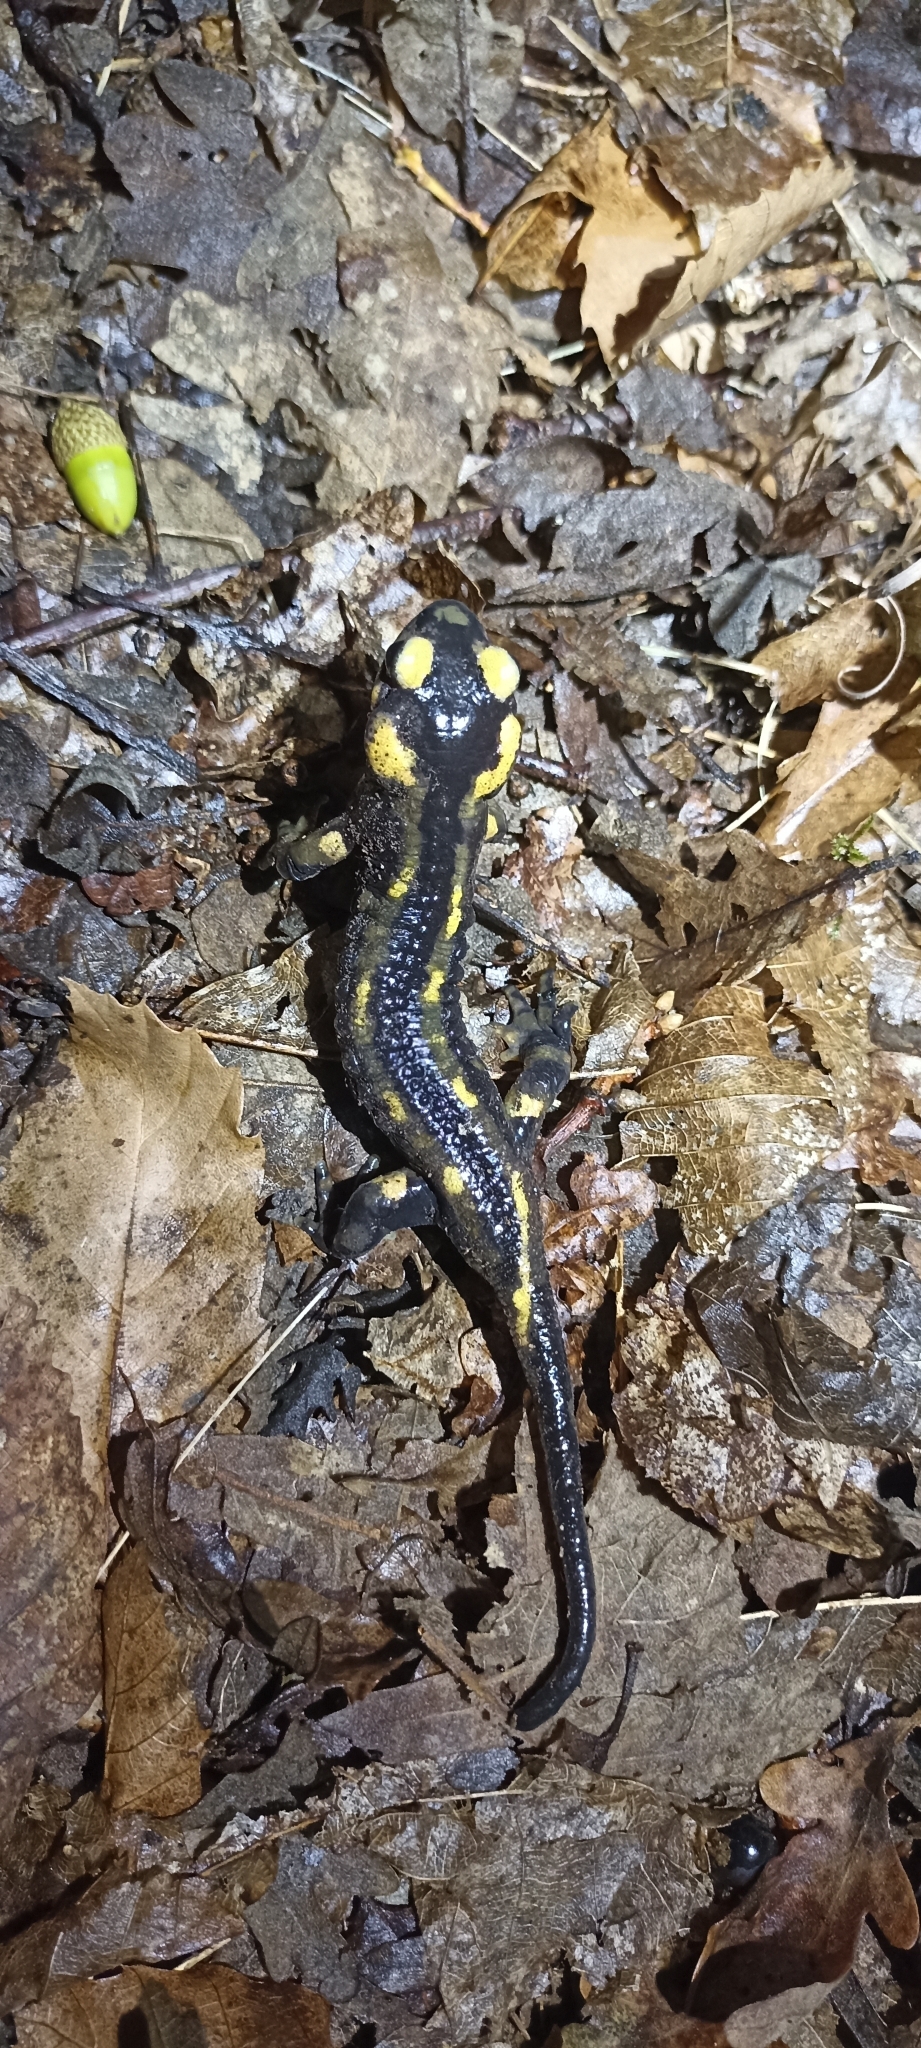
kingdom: Animalia
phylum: Chordata
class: Amphibia
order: Caudata
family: Salamandridae
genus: Salamandra
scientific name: Salamandra salamandra
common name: Fire salamander
